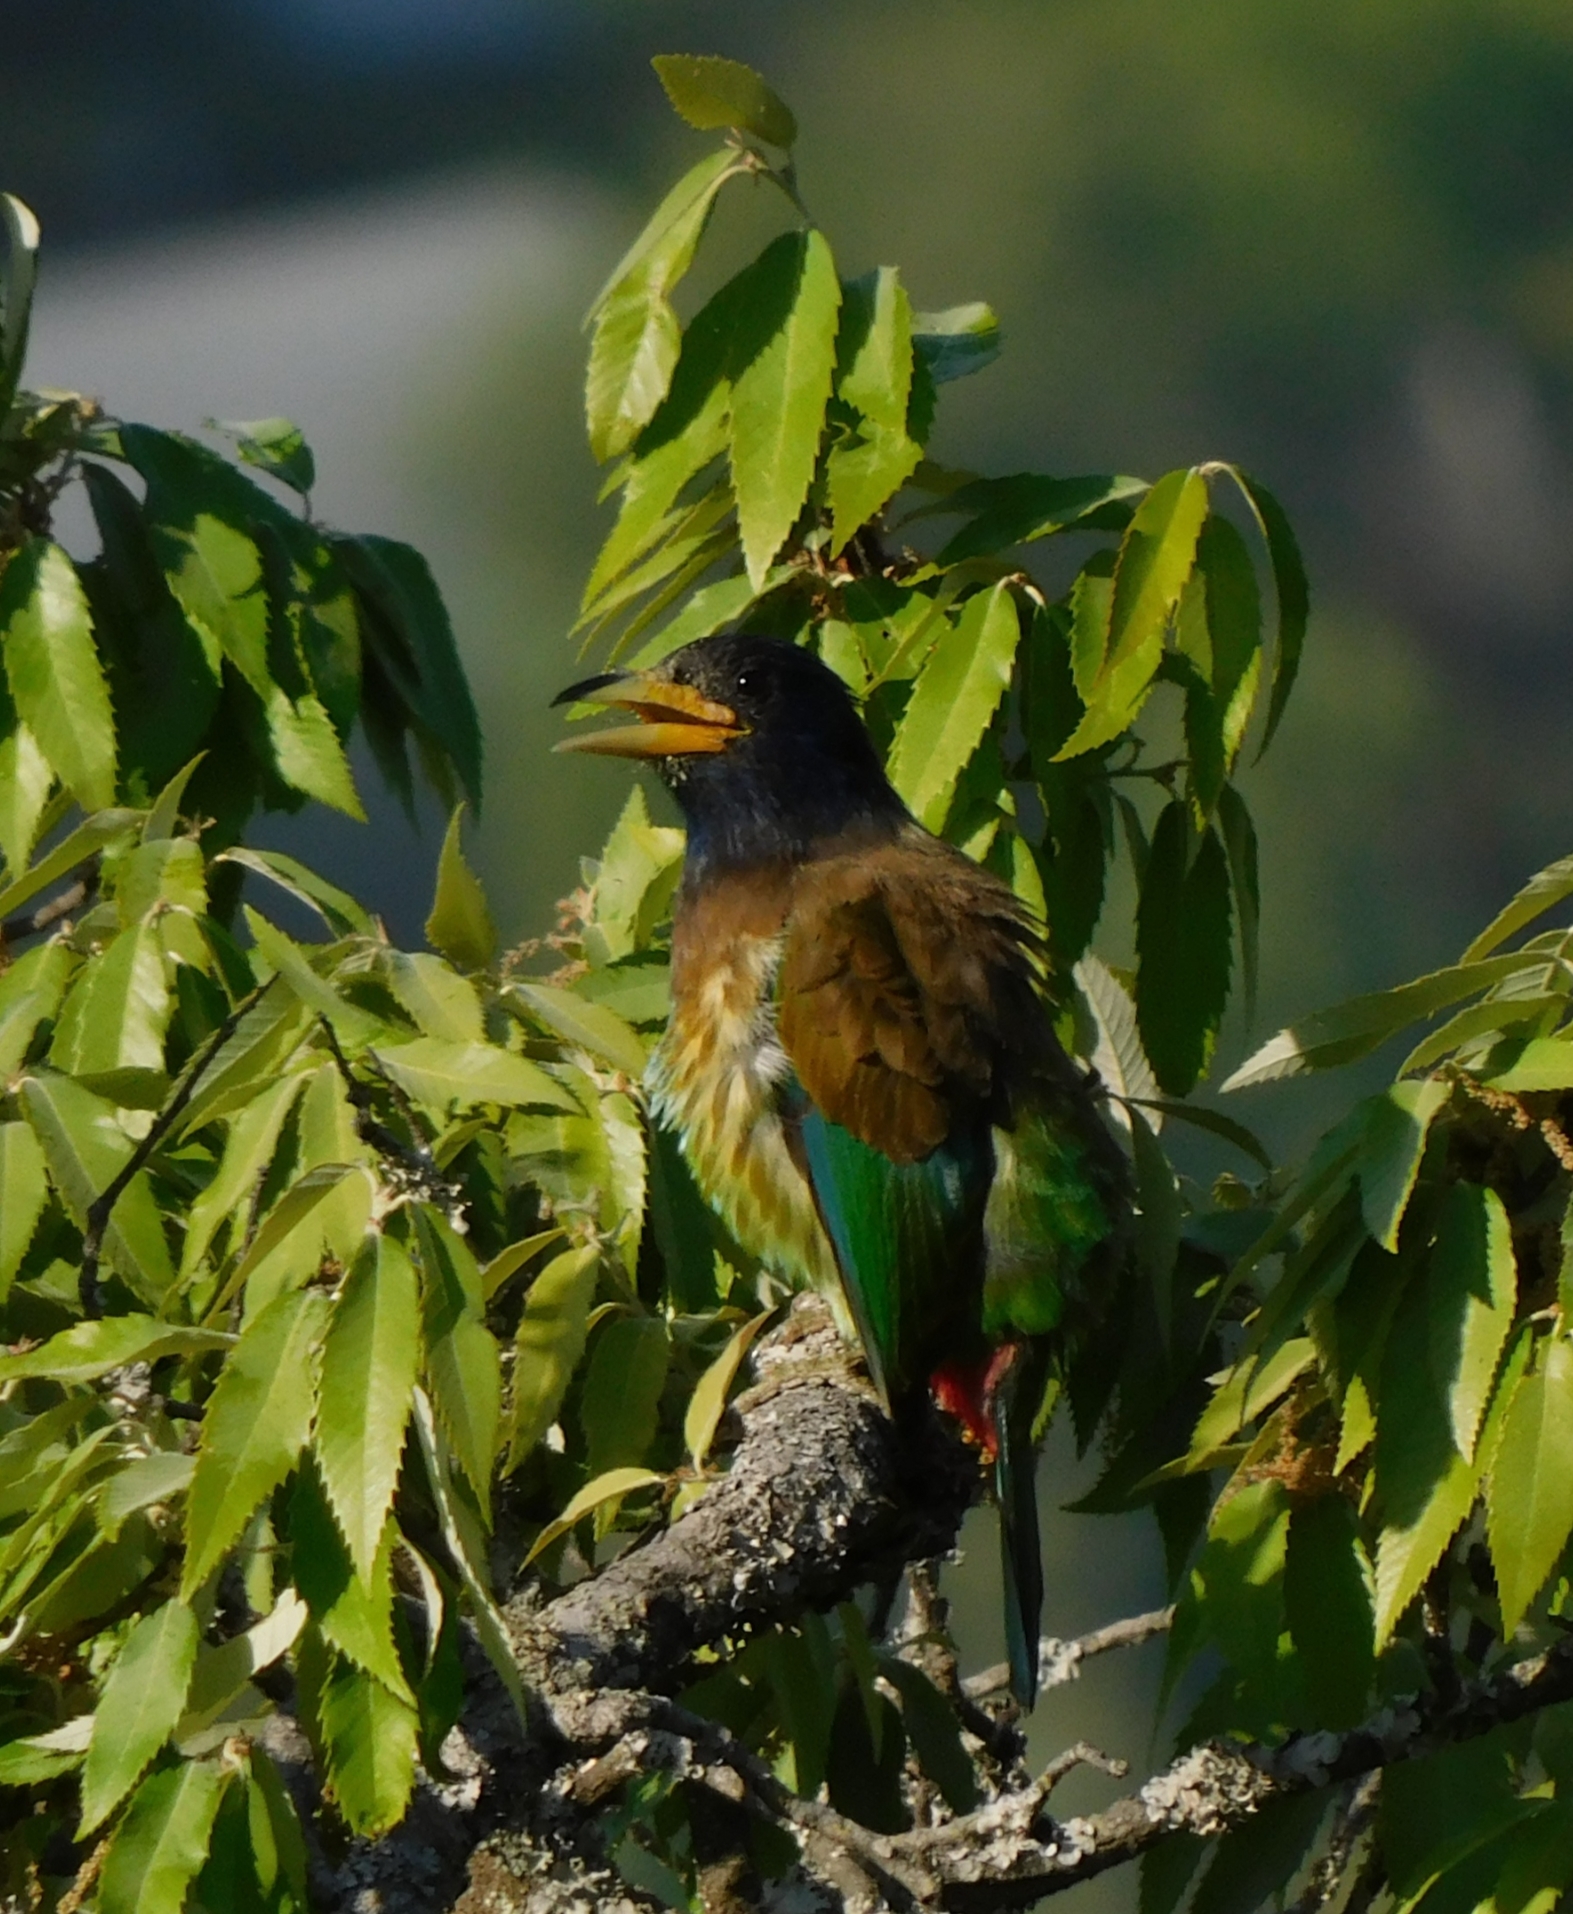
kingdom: Animalia
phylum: Chordata
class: Aves
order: Piciformes
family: Megalaimidae
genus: Psilopogon
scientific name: Psilopogon virens
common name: Great barbet
